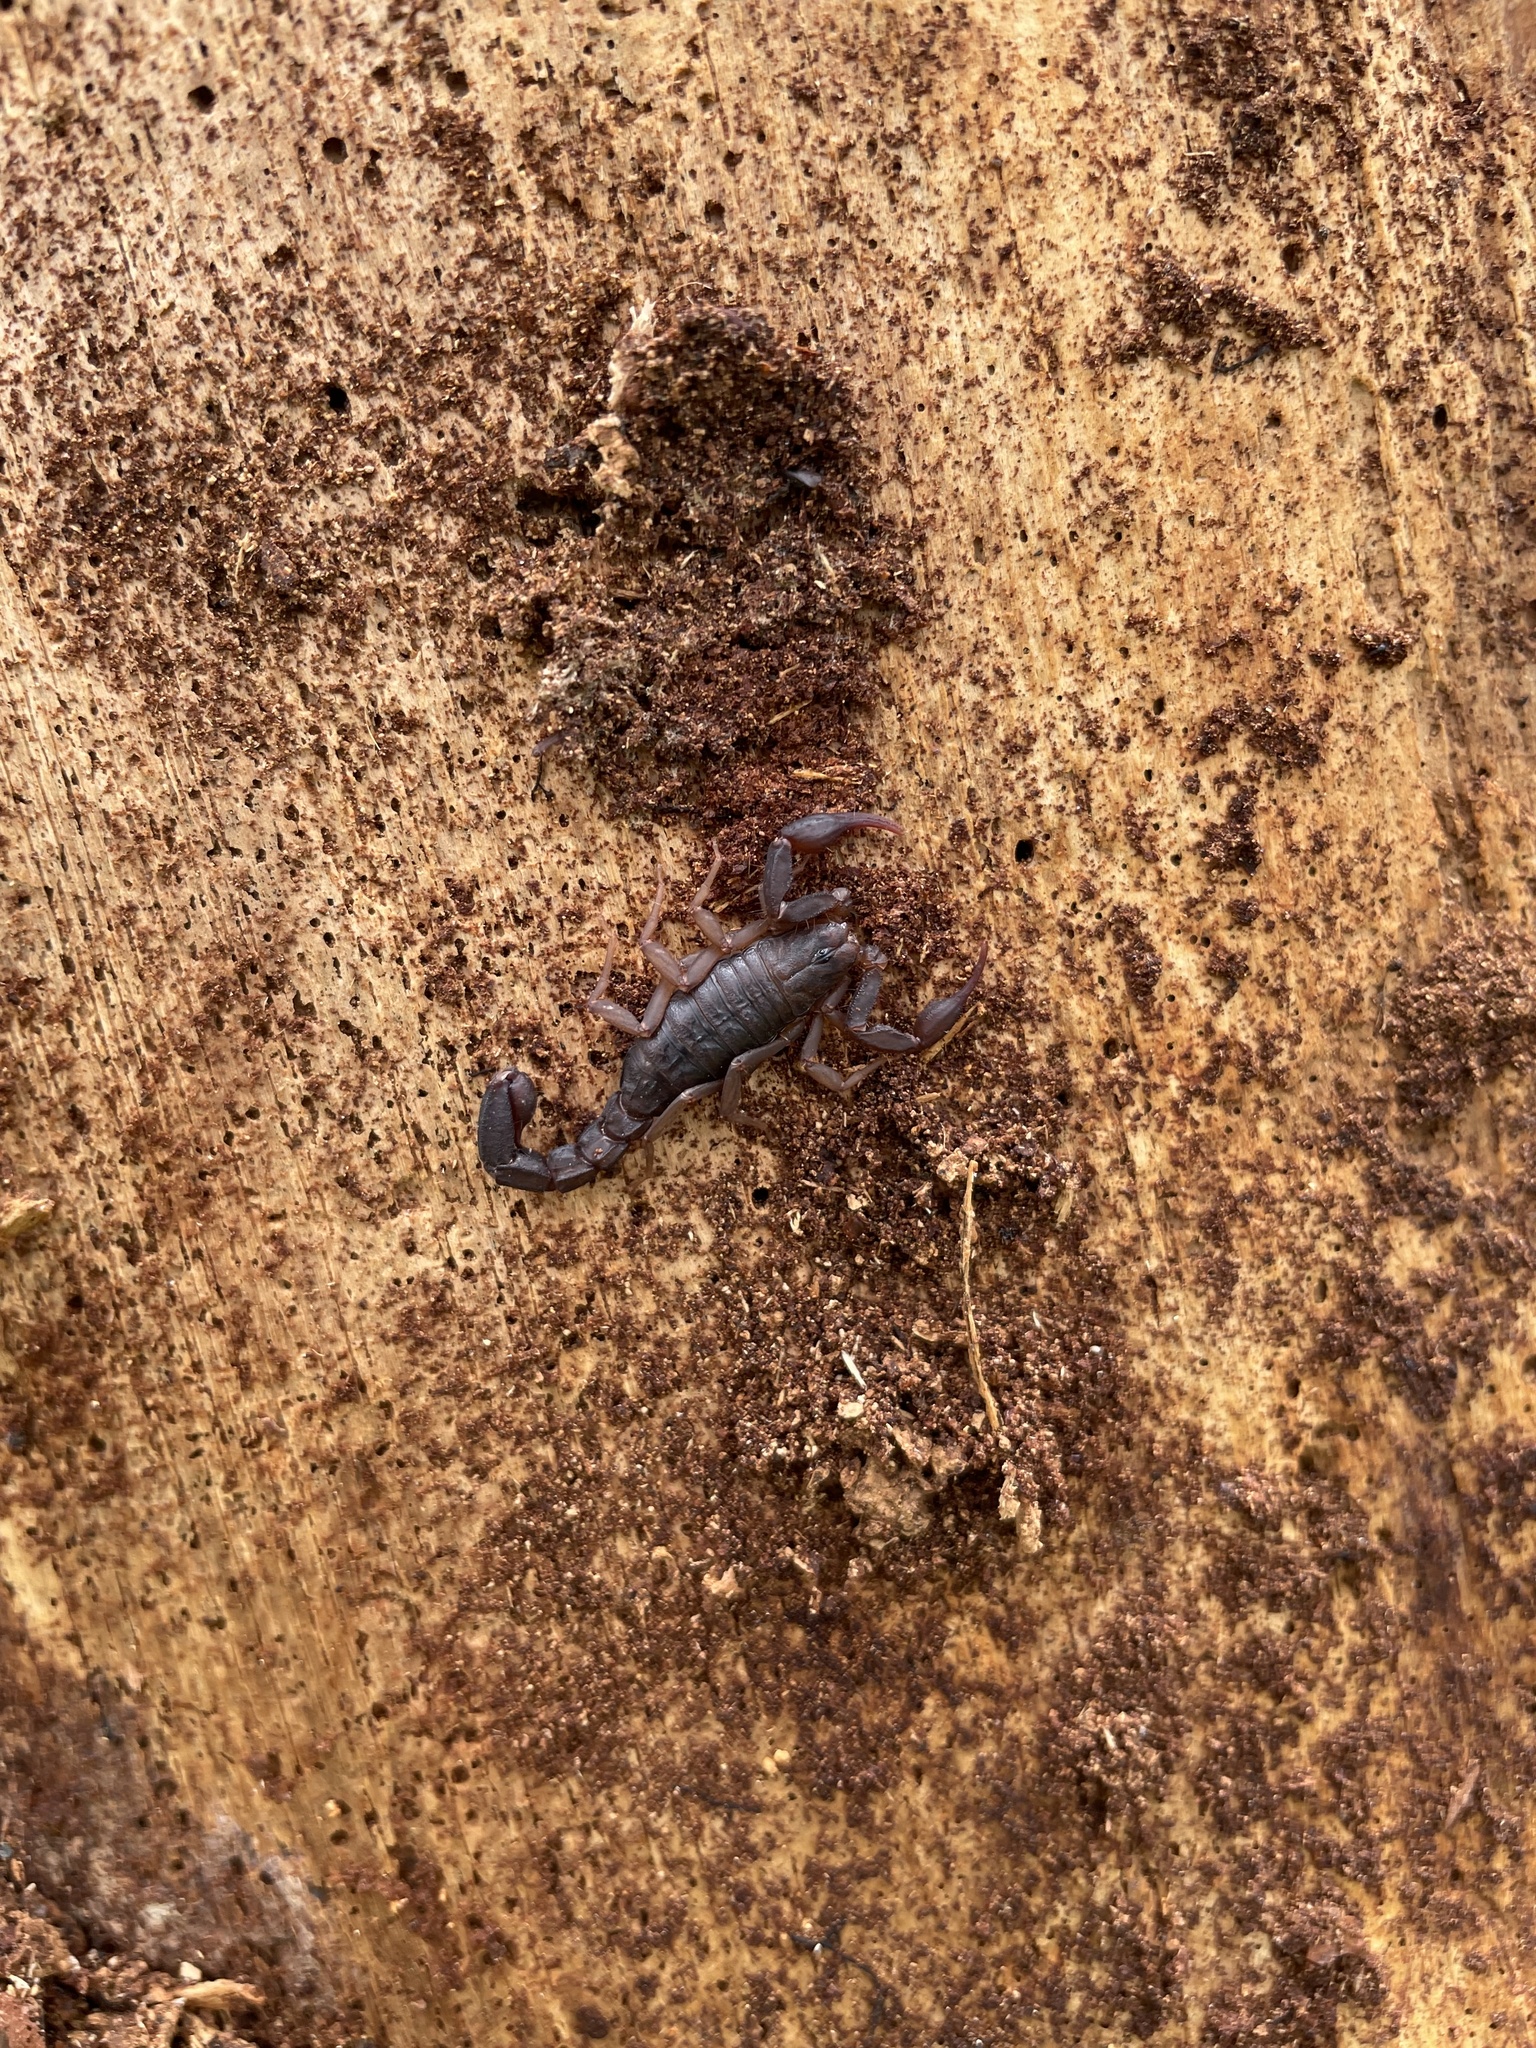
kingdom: Animalia
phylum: Arthropoda
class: Arachnida
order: Scorpiones
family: Vaejovidae
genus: Vaejovis
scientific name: Vaejovis carolinianus
